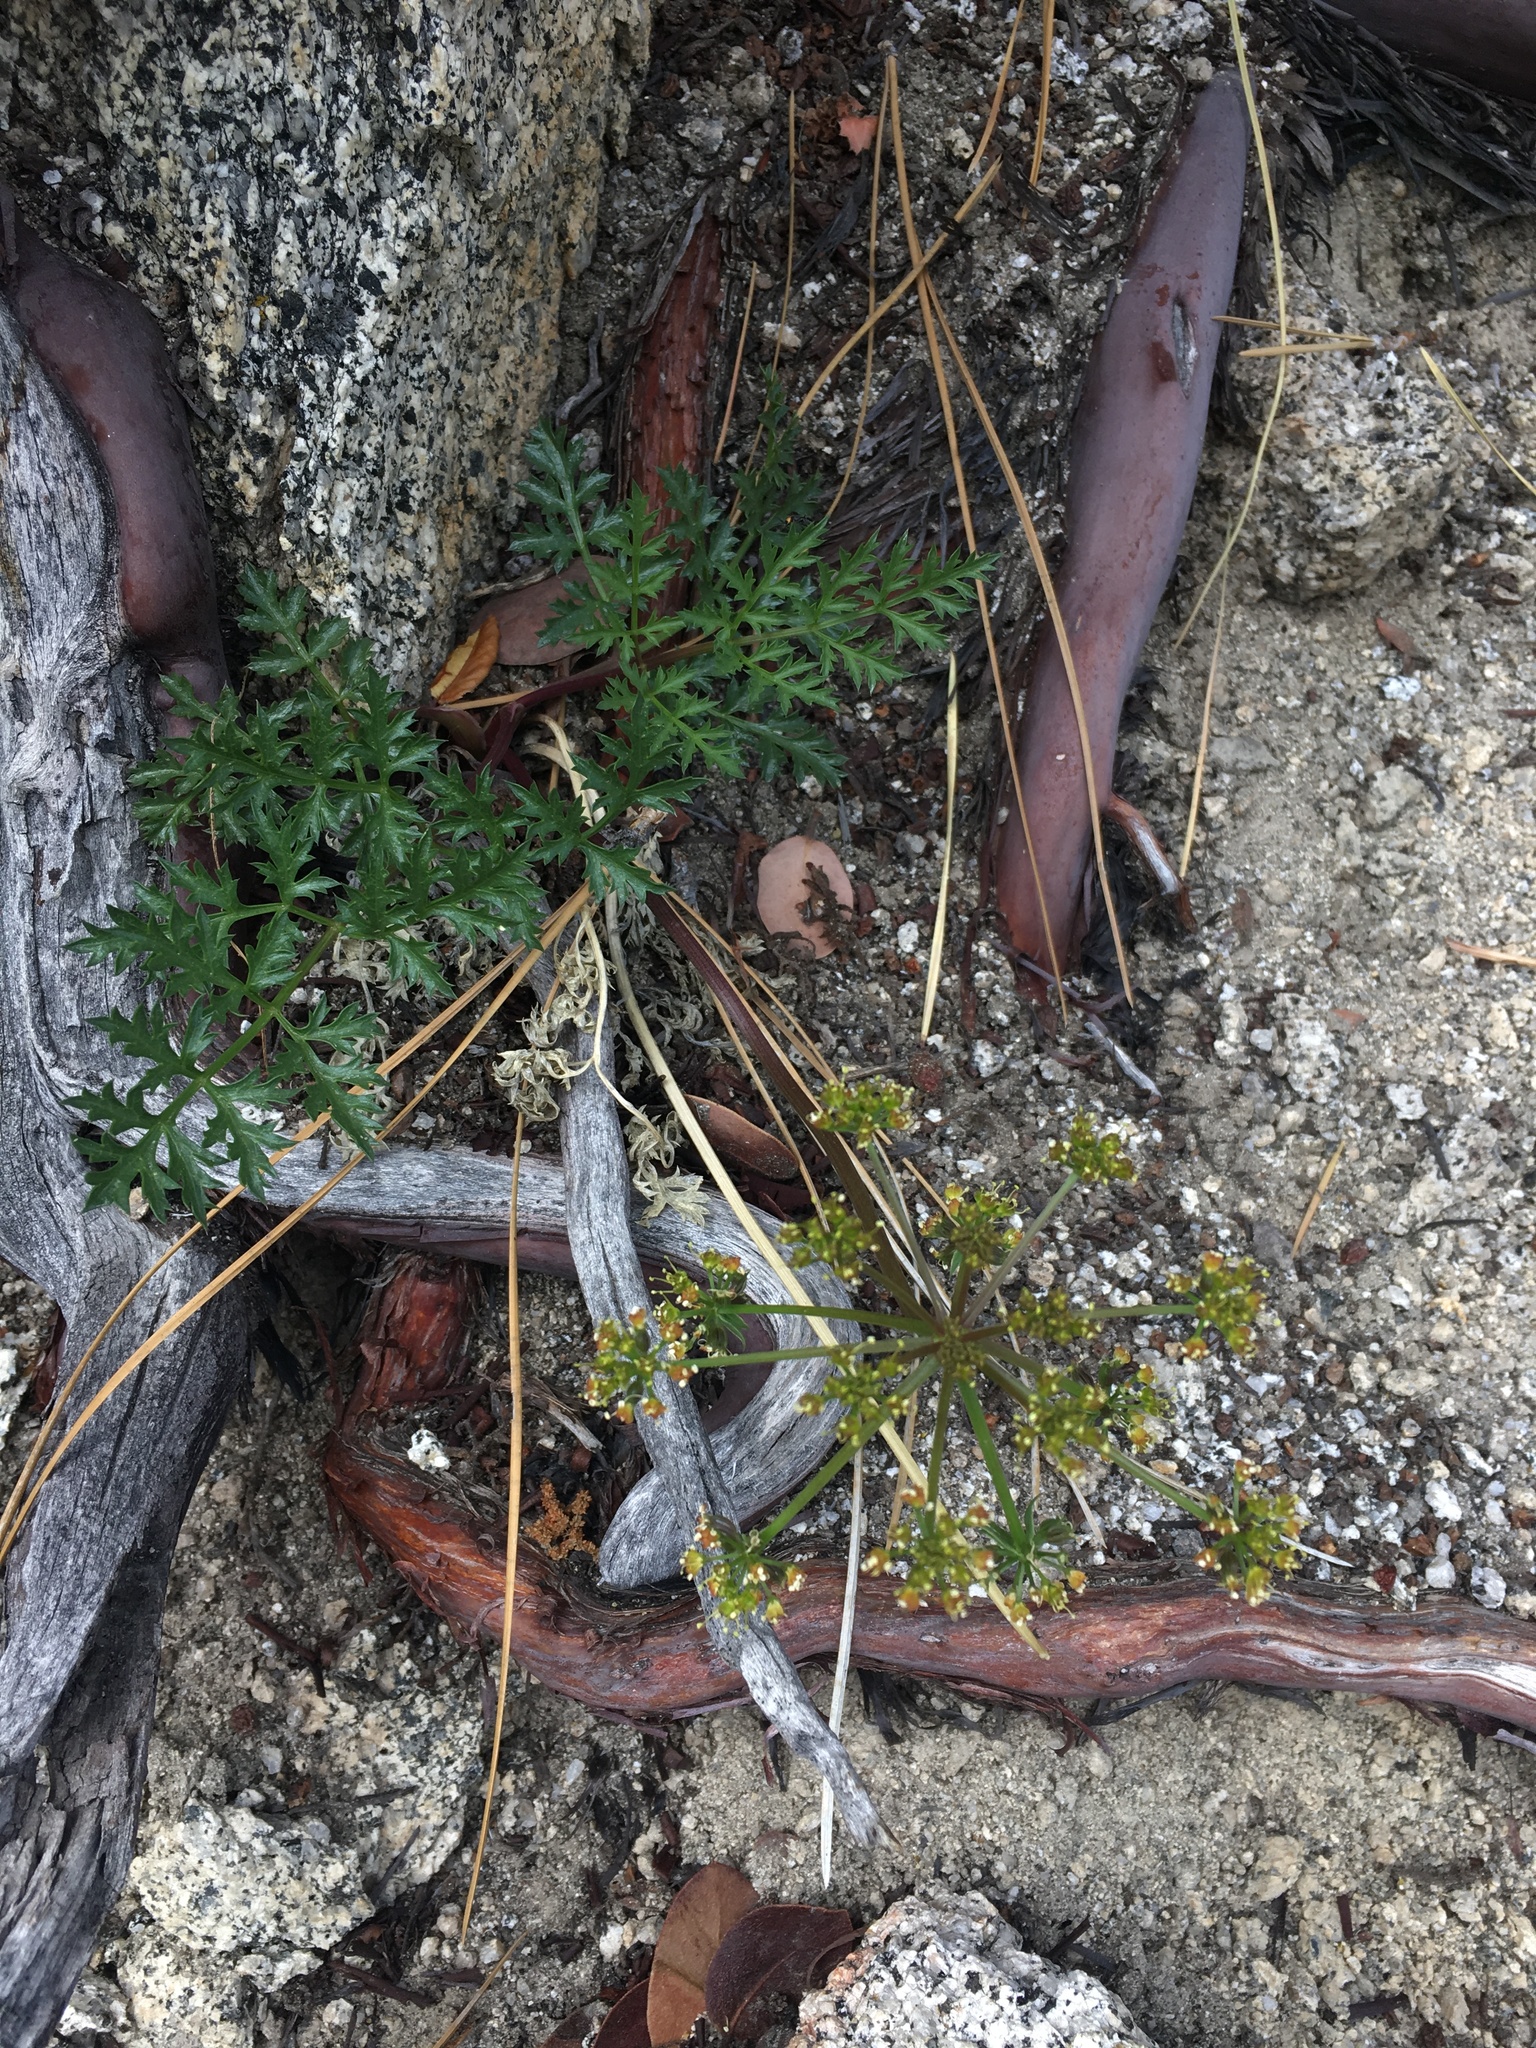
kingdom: Plantae
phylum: Tracheophyta
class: Magnoliopsida
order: Apiales
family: Apiaceae
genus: Tauschia
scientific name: Tauschia parishii
